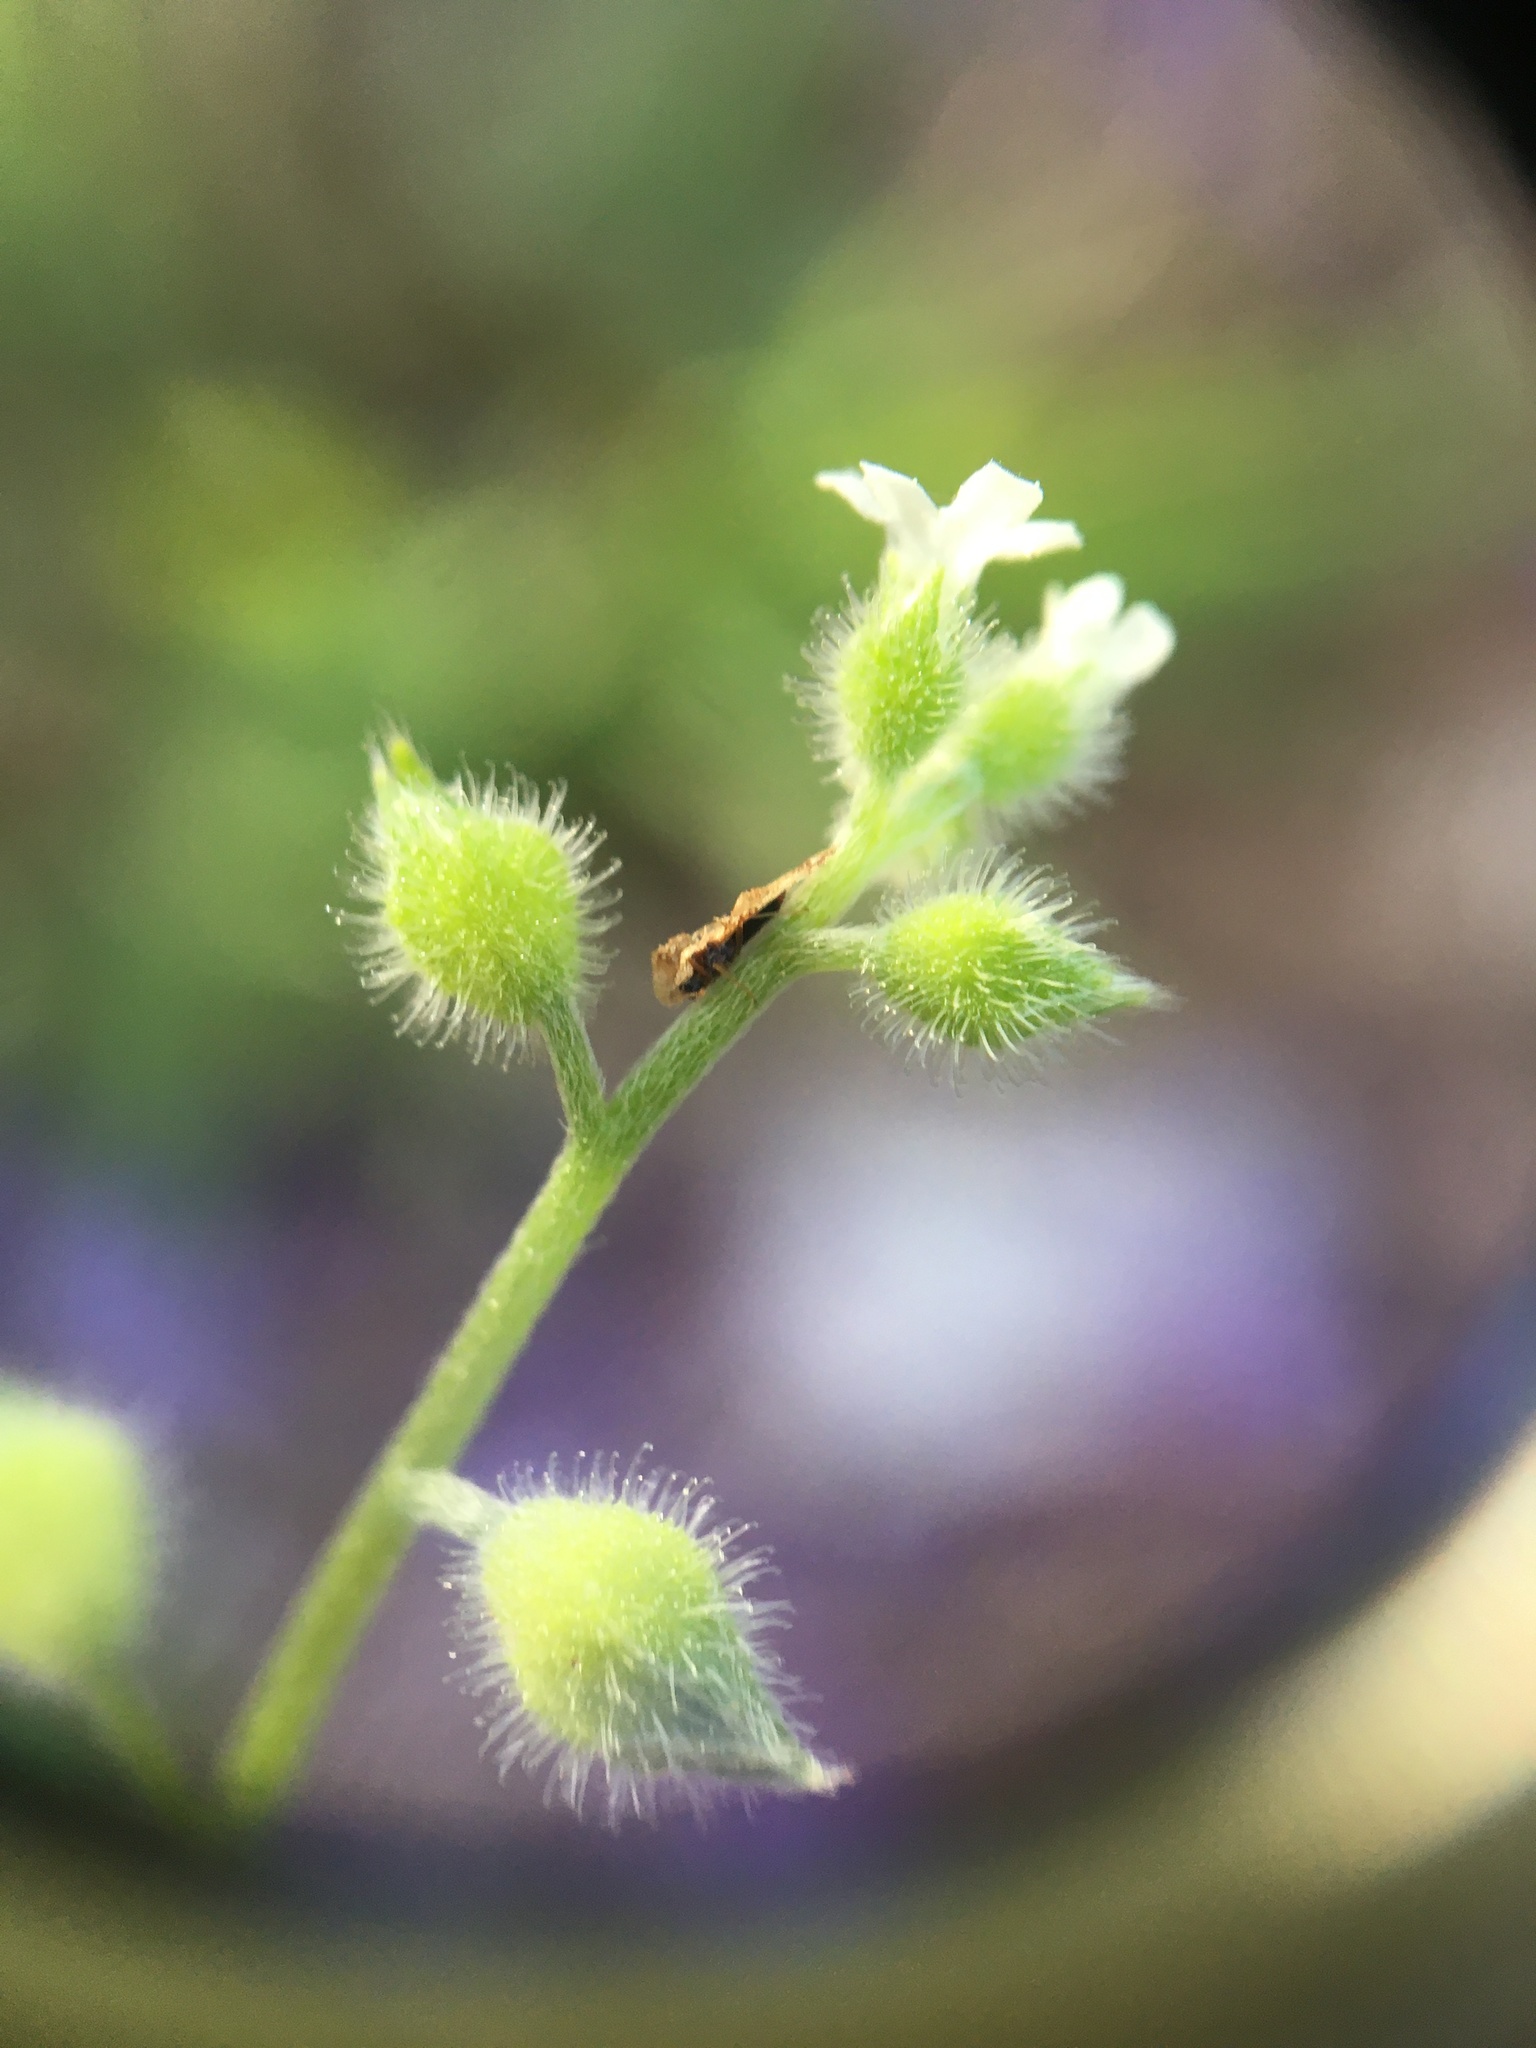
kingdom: Plantae
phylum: Tracheophyta
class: Magnoliopsida
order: Boraginales
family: Boraginaceae
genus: Myosotis
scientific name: Myosotis macrosperma
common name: Large-seed forget-me-not
